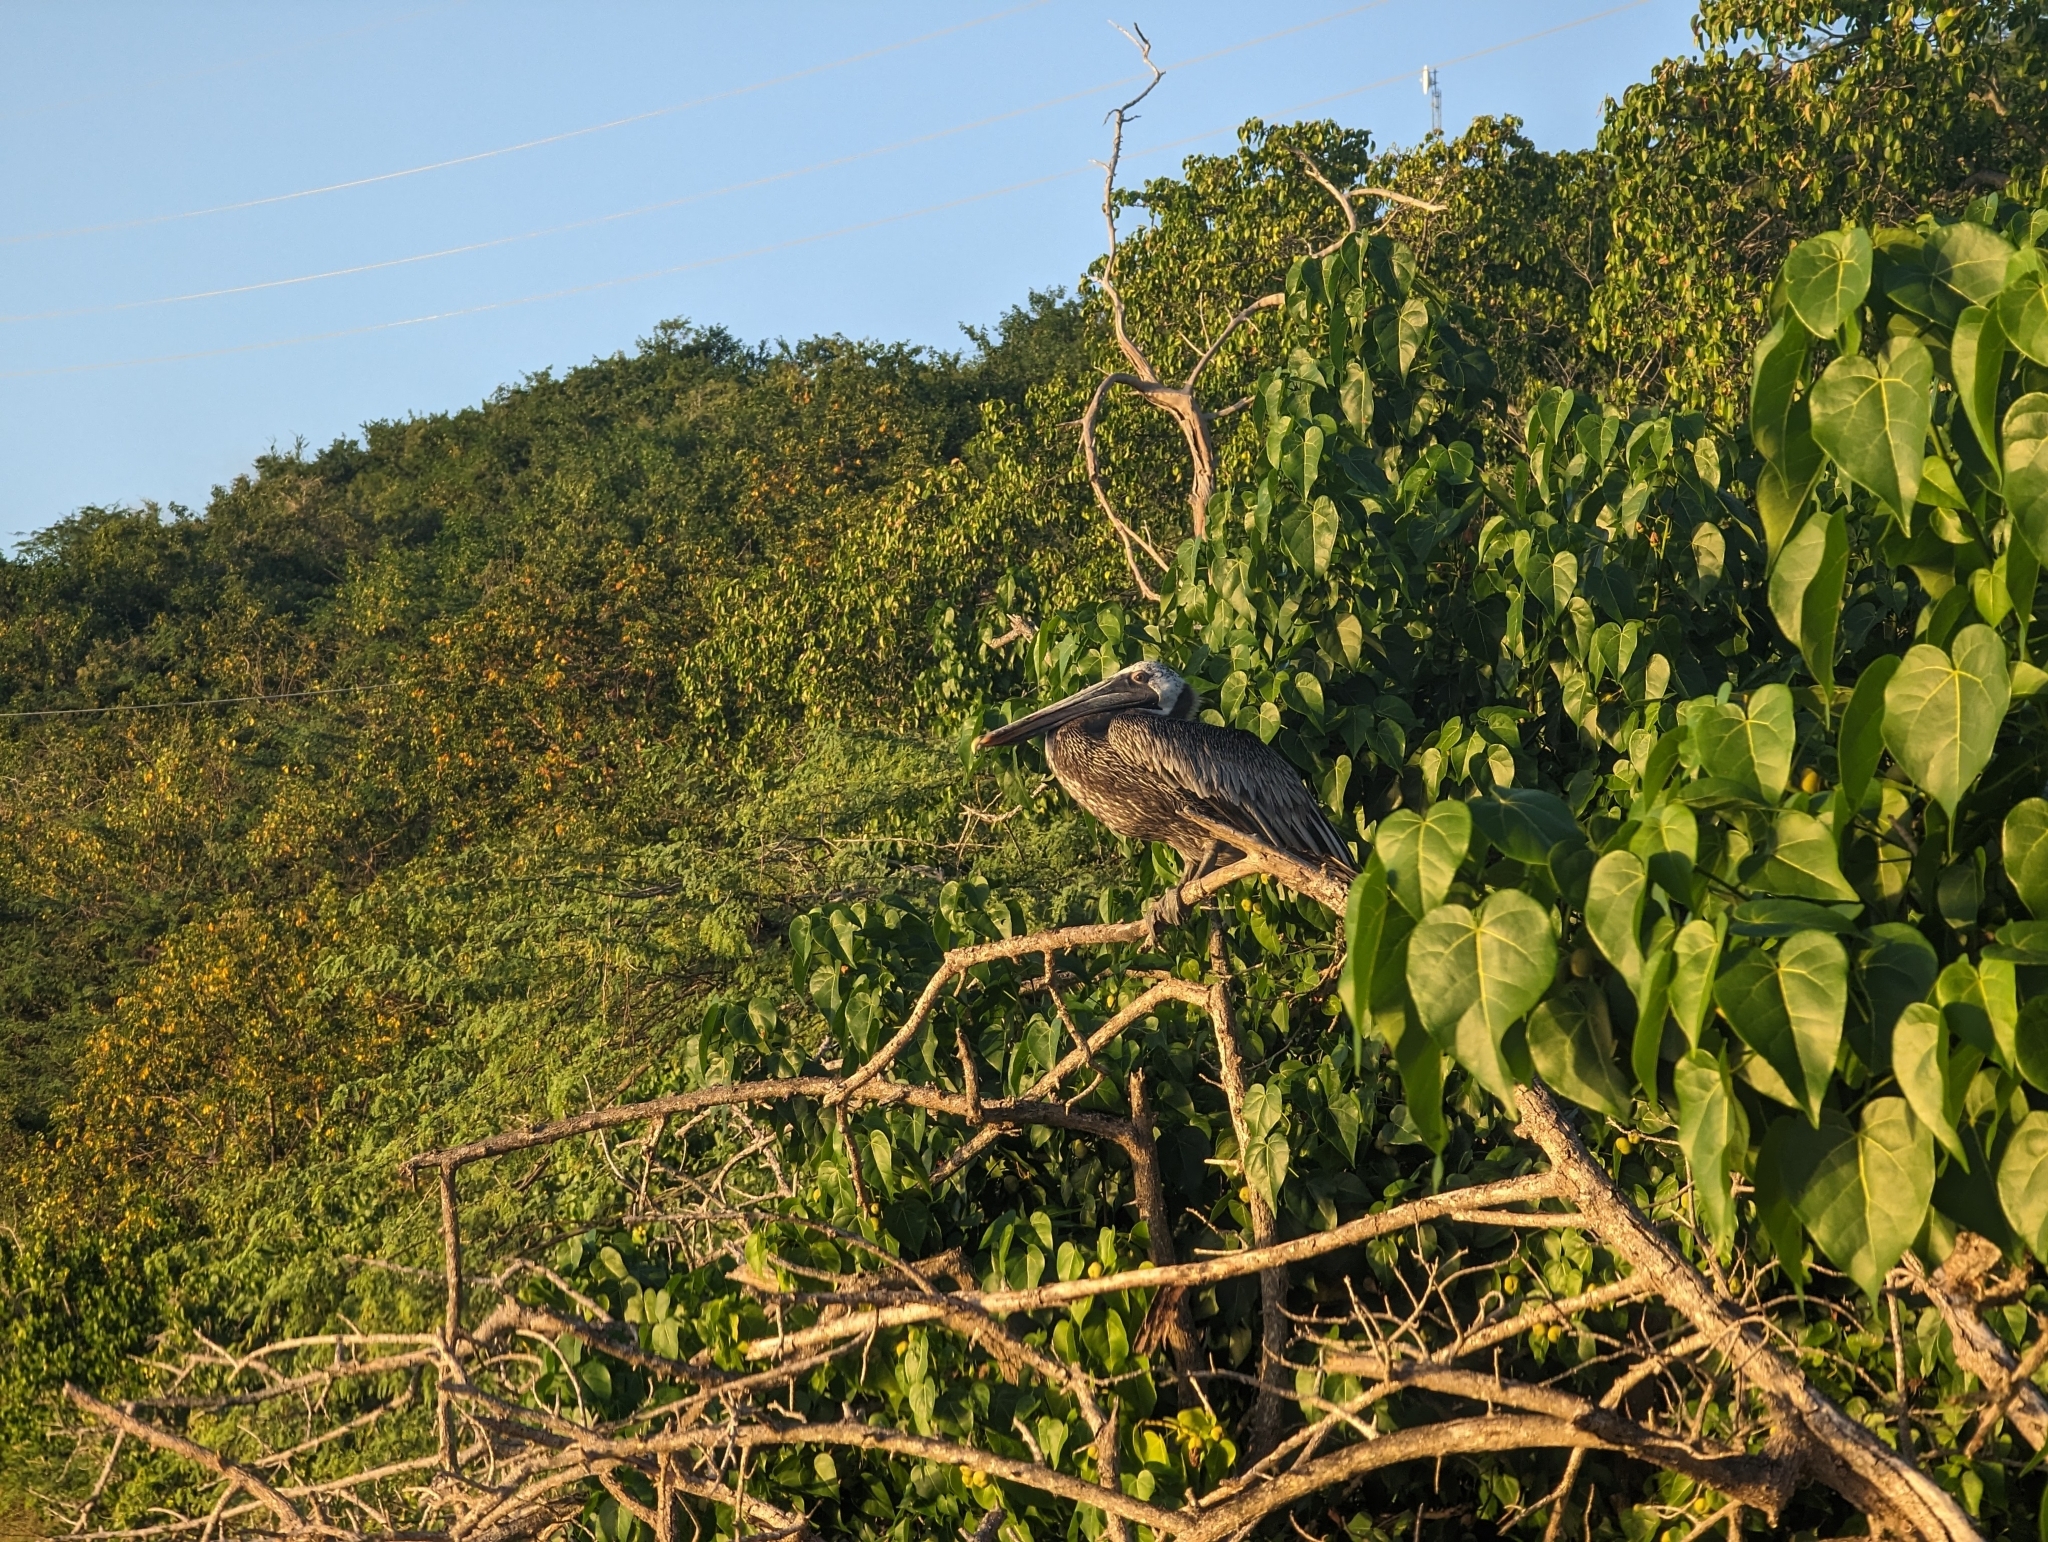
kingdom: Animalia
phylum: Chordata
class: Aves
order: Pelecaniformes
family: Pelecanidae
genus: Pelecanus
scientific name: Pelecanus occidentalis
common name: Brown pelican
